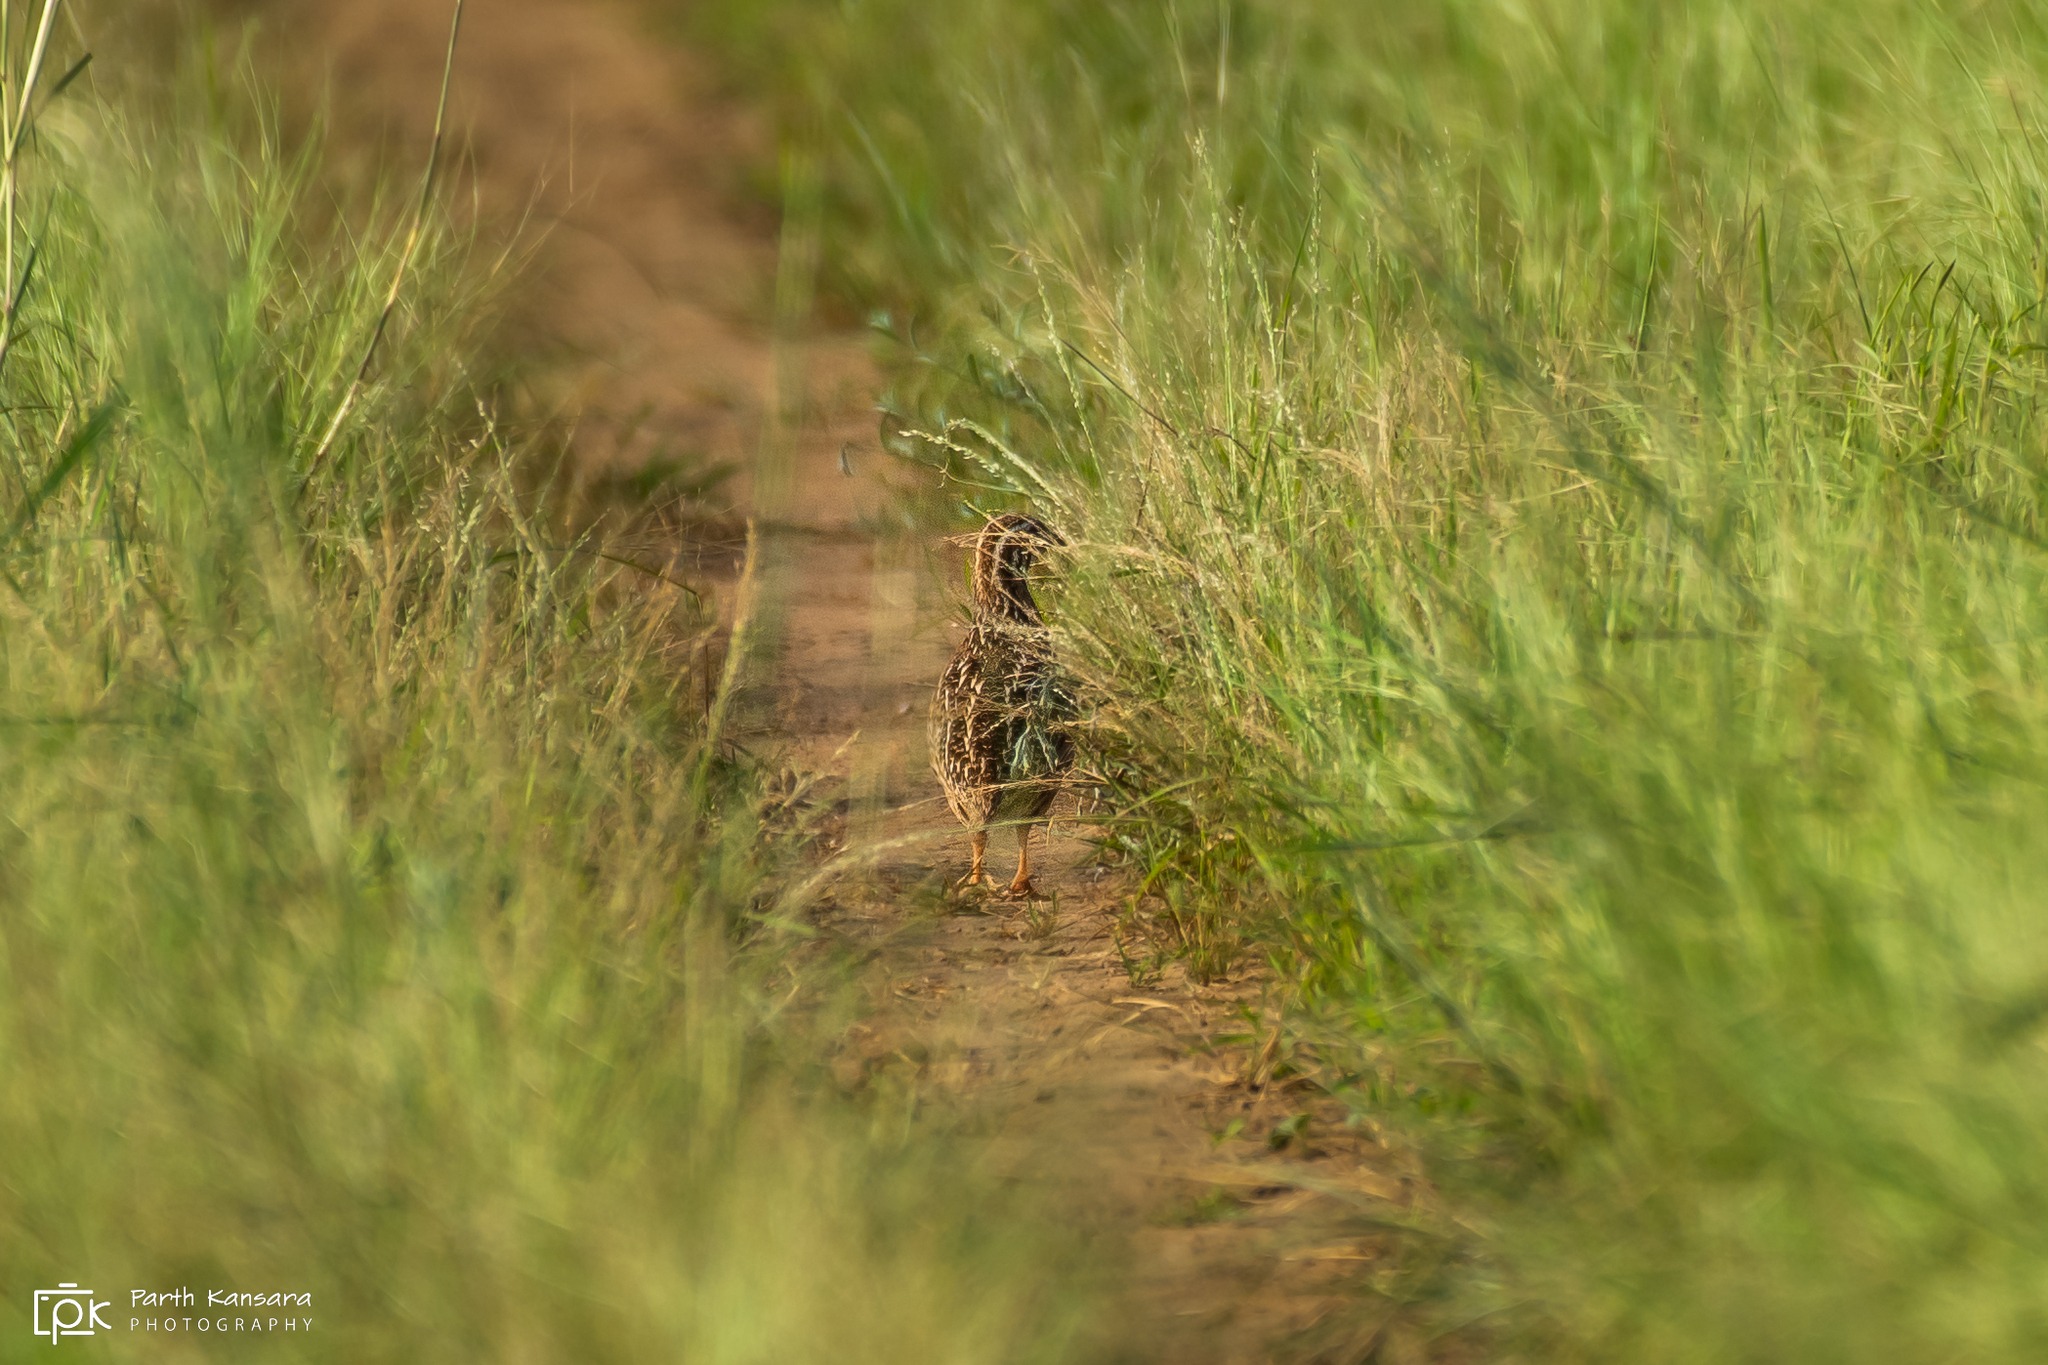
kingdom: Animalia
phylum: Chordata
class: Aves
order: Galliformes
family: Phasianidae
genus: Coturnix
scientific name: Coturnix coturnix
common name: Common quail
